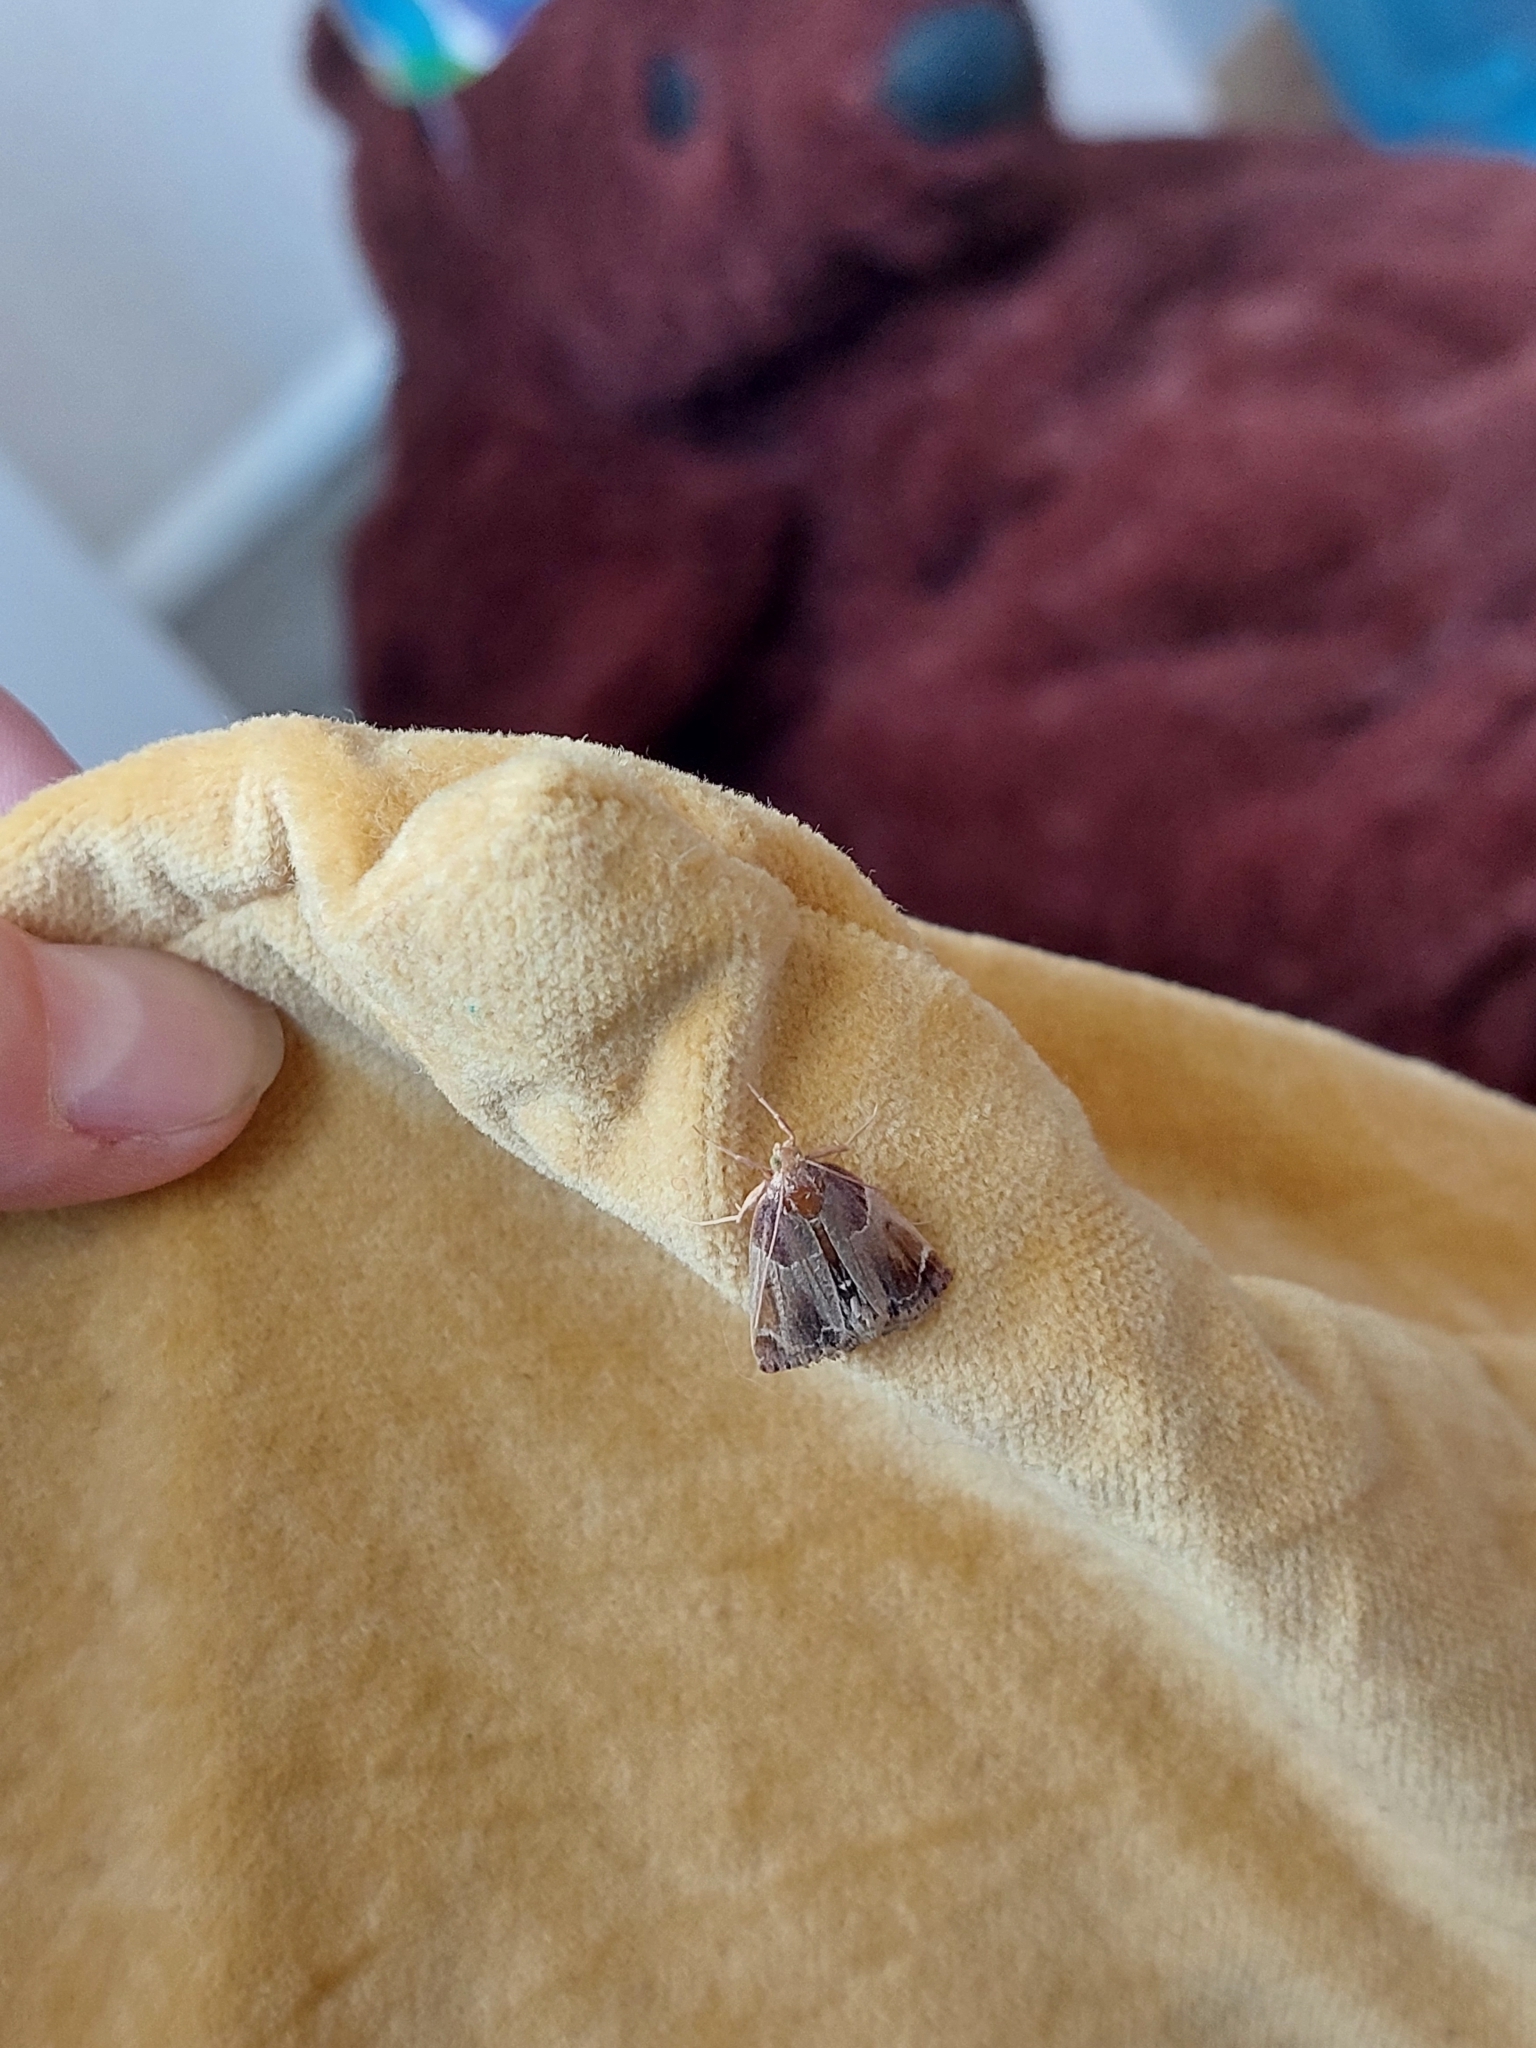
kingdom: Animalia
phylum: Arthropoda
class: Insecta
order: Lepidoptera
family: Pyralidae
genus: Pyralis
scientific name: Pyralis farinalis
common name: Meal moth
